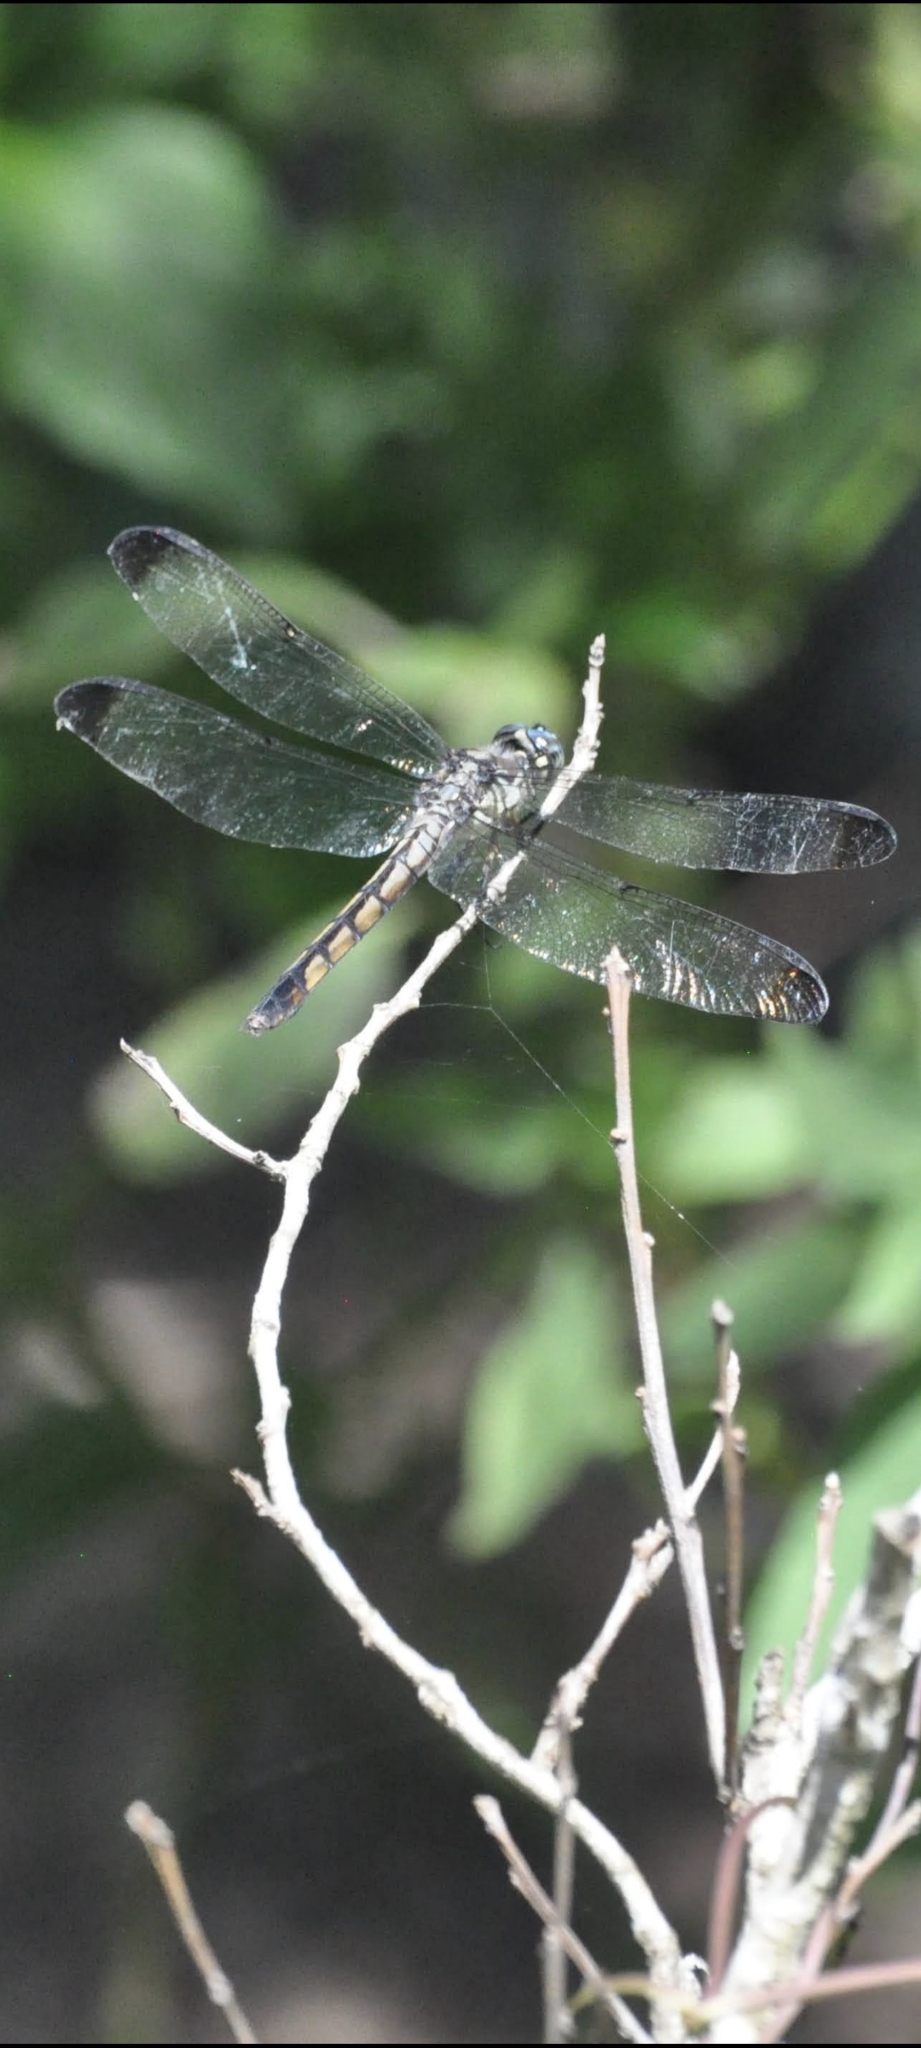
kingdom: Animalia
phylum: Arthropoda
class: Insecta
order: Odonata
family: Libellulidae
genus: Libellula
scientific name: Libellula vibrans
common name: Great blue skimmer
